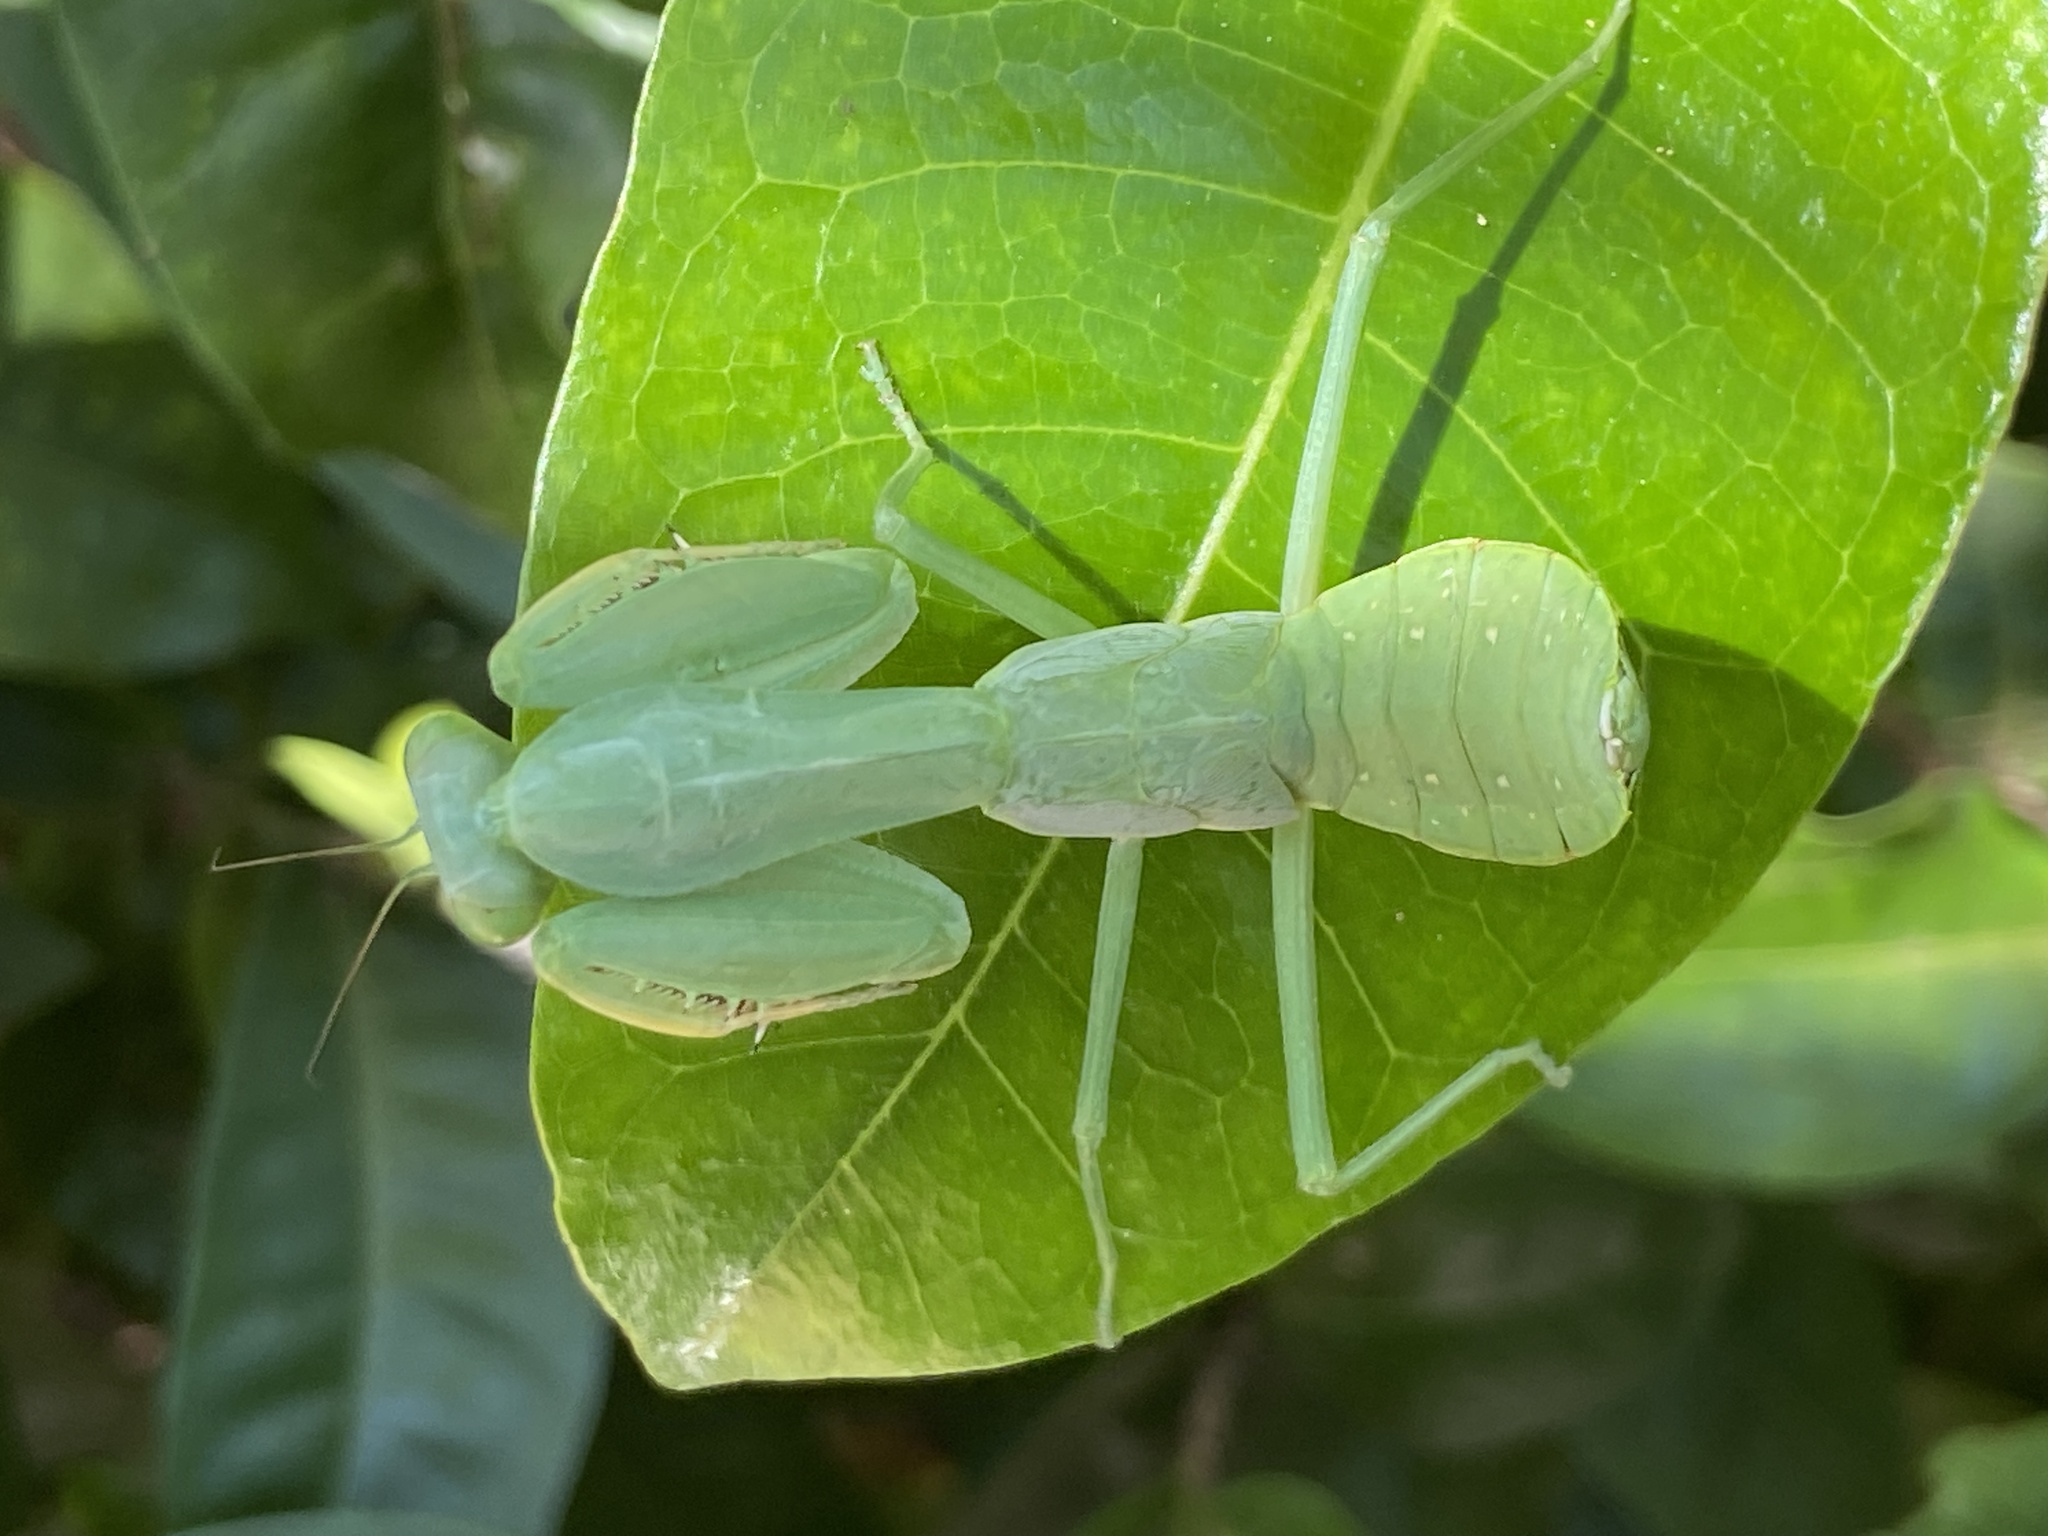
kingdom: Animalia
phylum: Arthropoda
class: Insecta
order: Mantodea
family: Mantidae
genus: Hierodula
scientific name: Hierodula werneri
